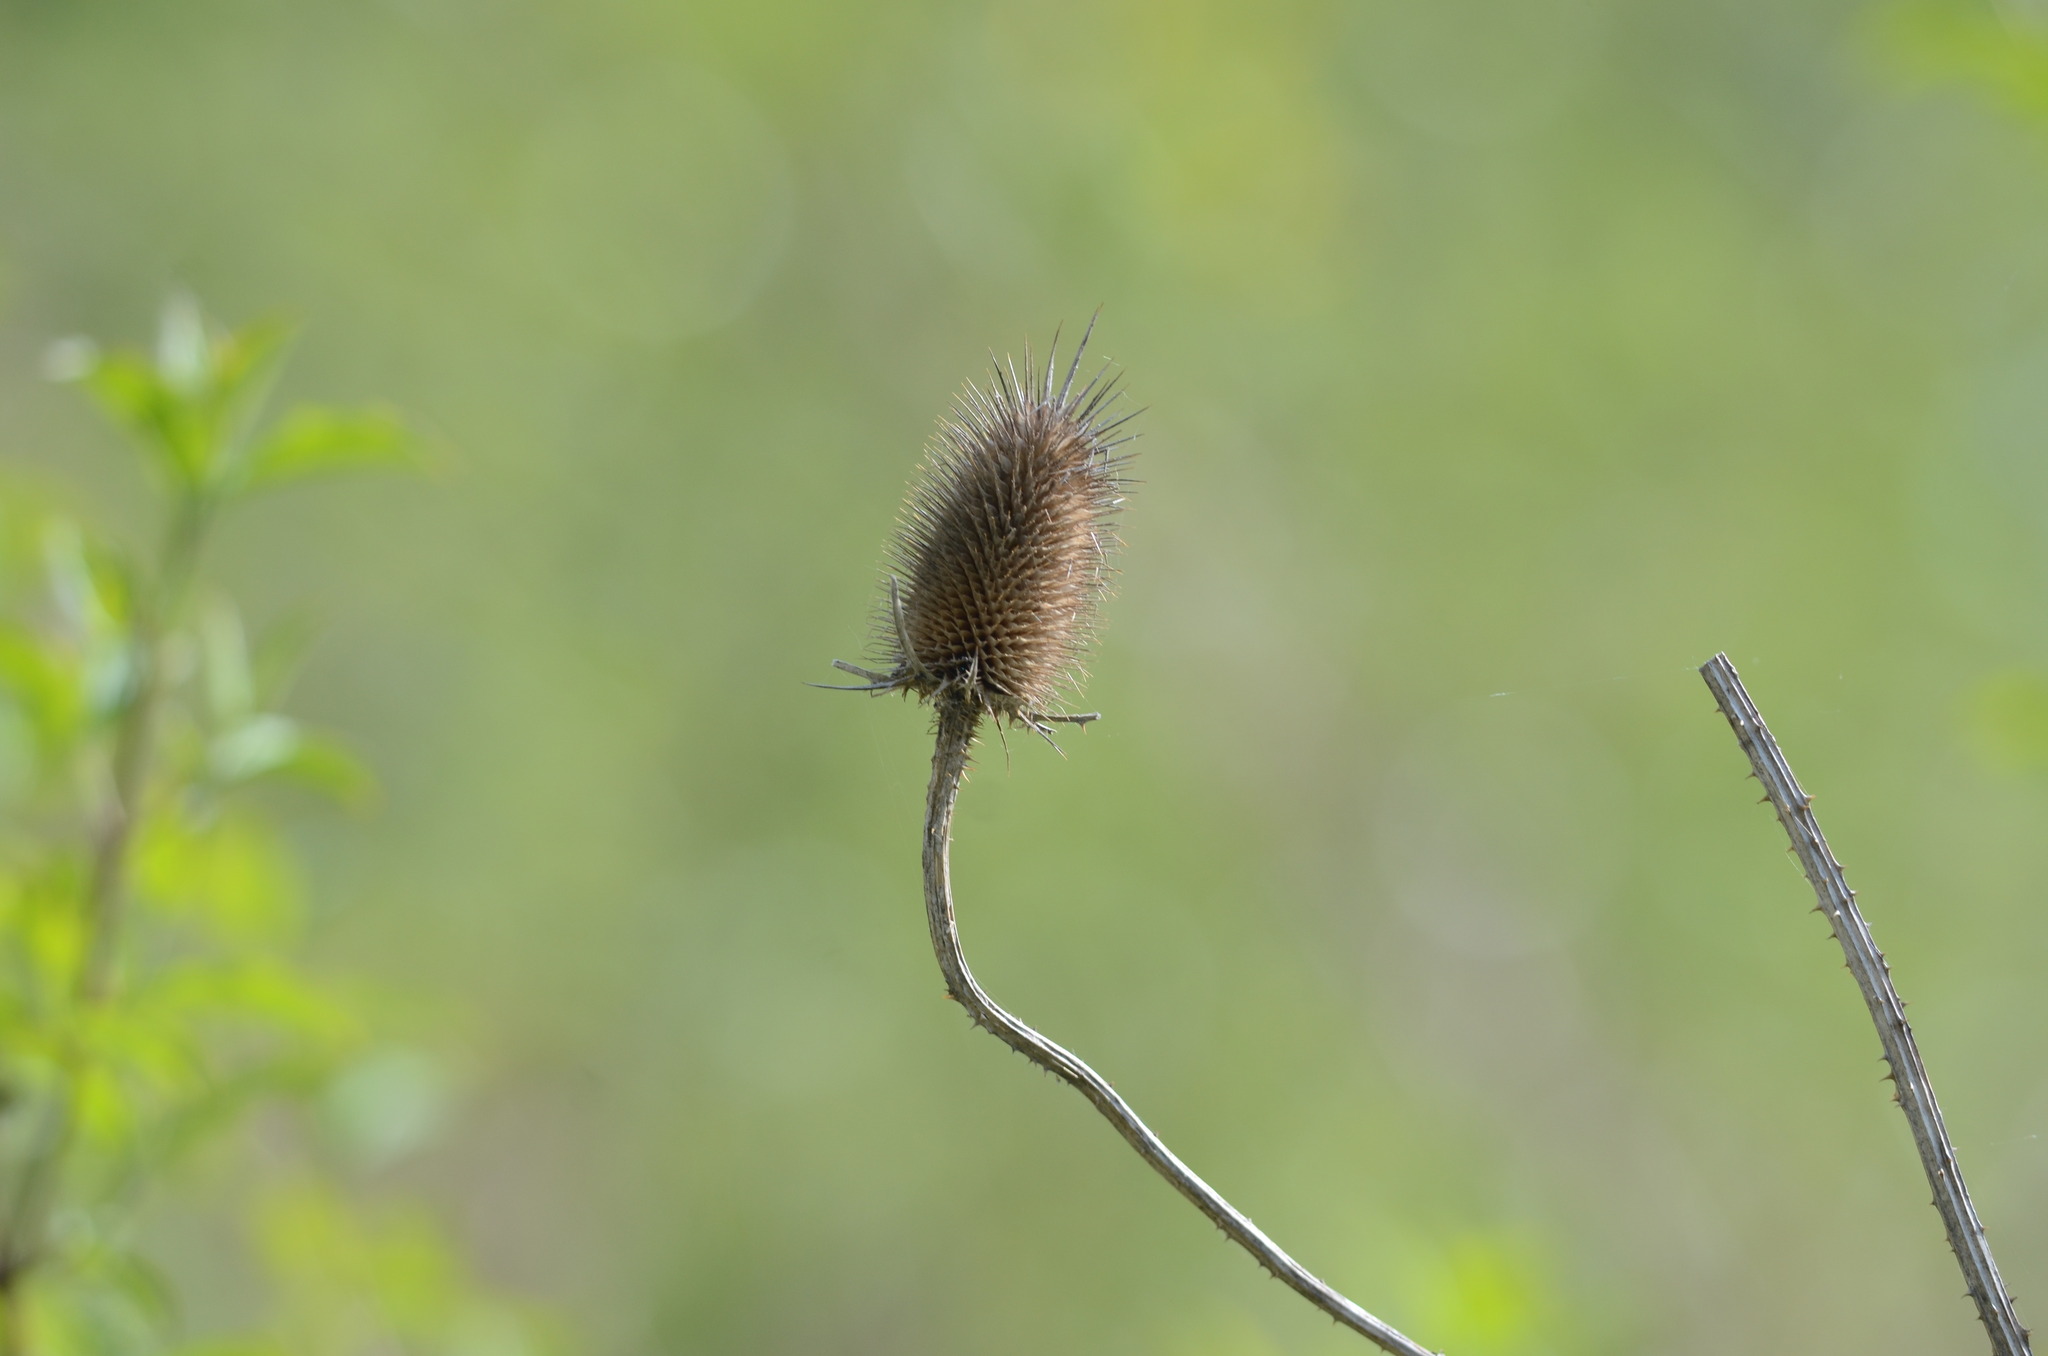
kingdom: Plantae
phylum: Tracheophyta
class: Magnoliopsida
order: Dipsacales
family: Caprifoliaceae
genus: Dipsacus
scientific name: Dipsacus fullonum
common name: Teasel
